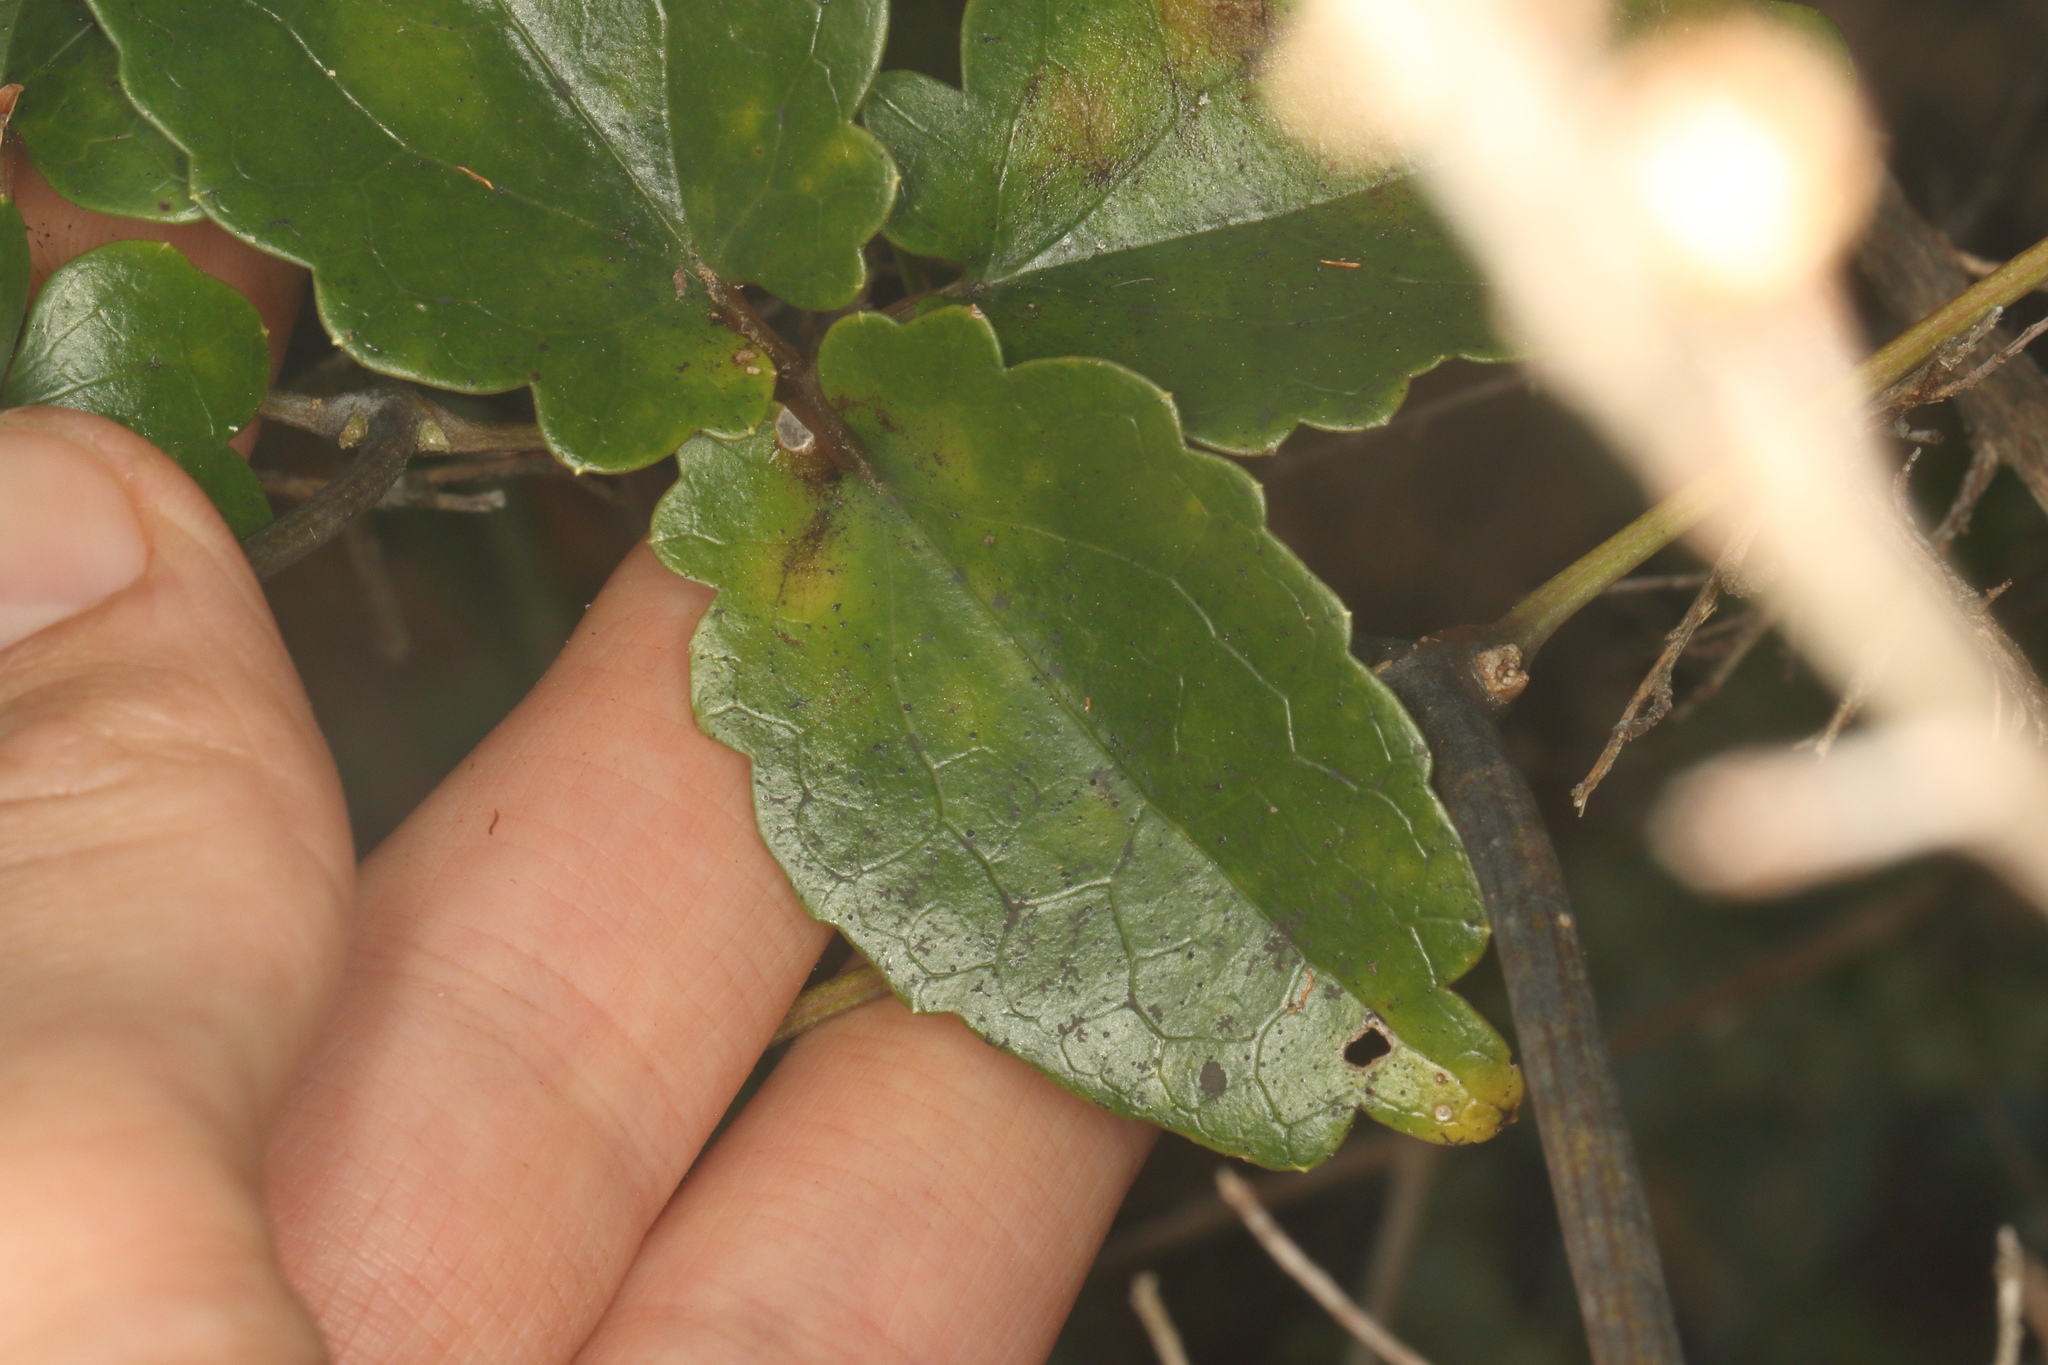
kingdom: Plantae
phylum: Tracheophyta
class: Magnoliopsida
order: Ranunculales
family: Ranunculaceae
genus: Clematis
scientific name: Clematis paniculata
